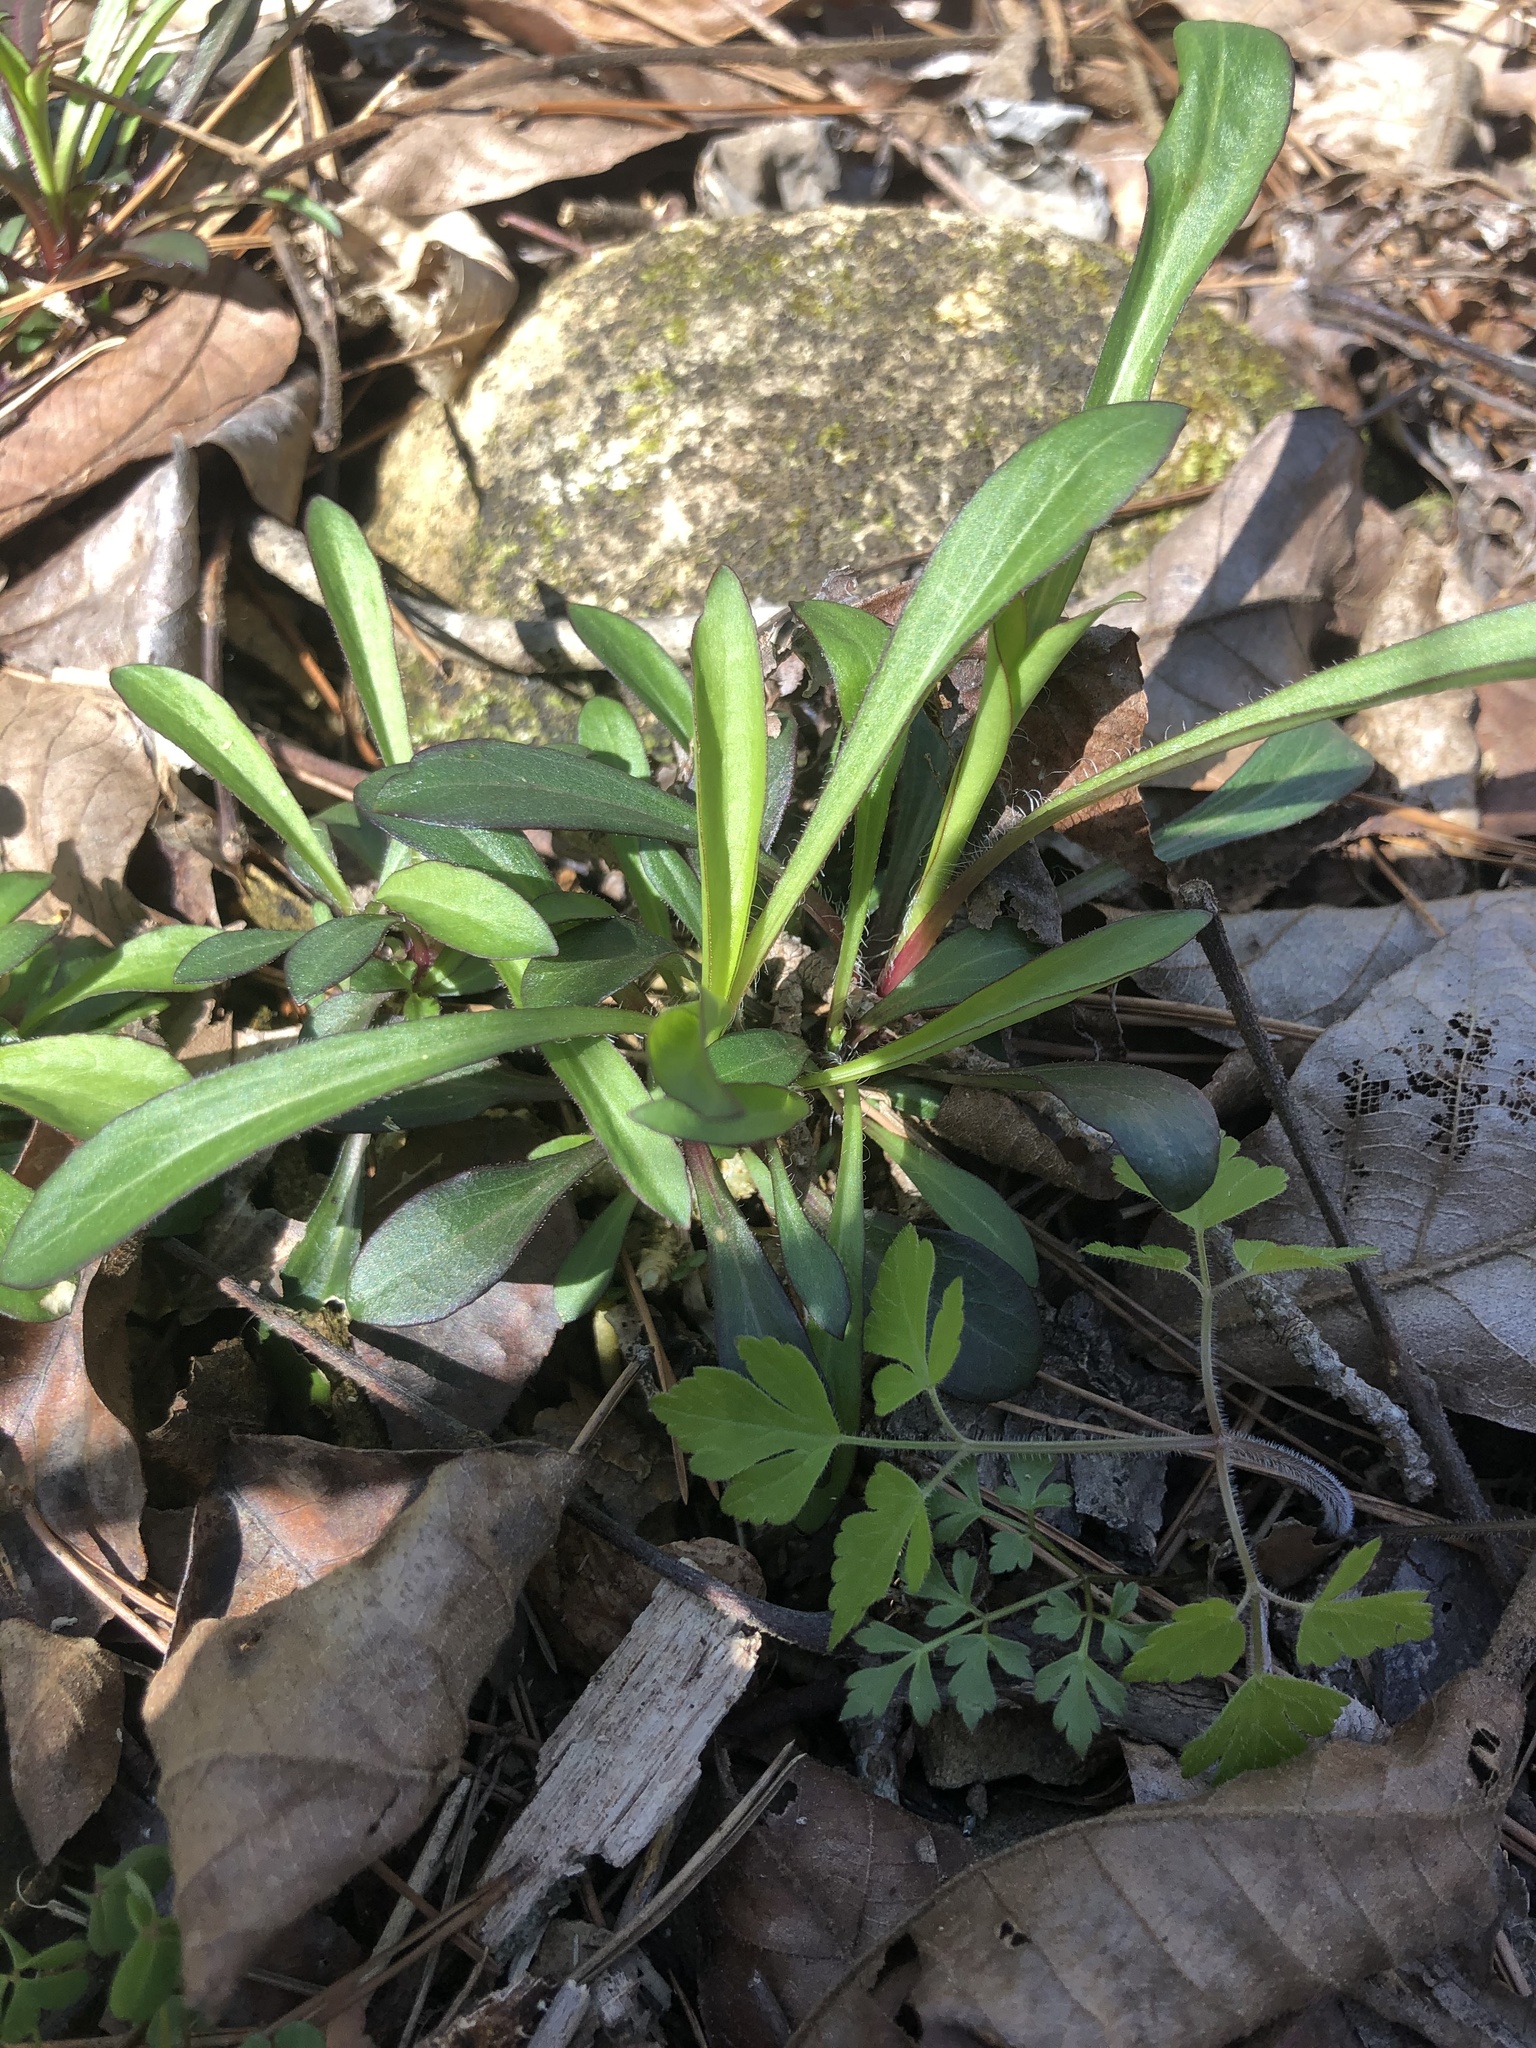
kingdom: Plantae
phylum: Tracheophyta
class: Magnoliopsida
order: Caryophyllales
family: Caryophyllaceae
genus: Silene
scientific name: Silene virginica
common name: Fire-pink
